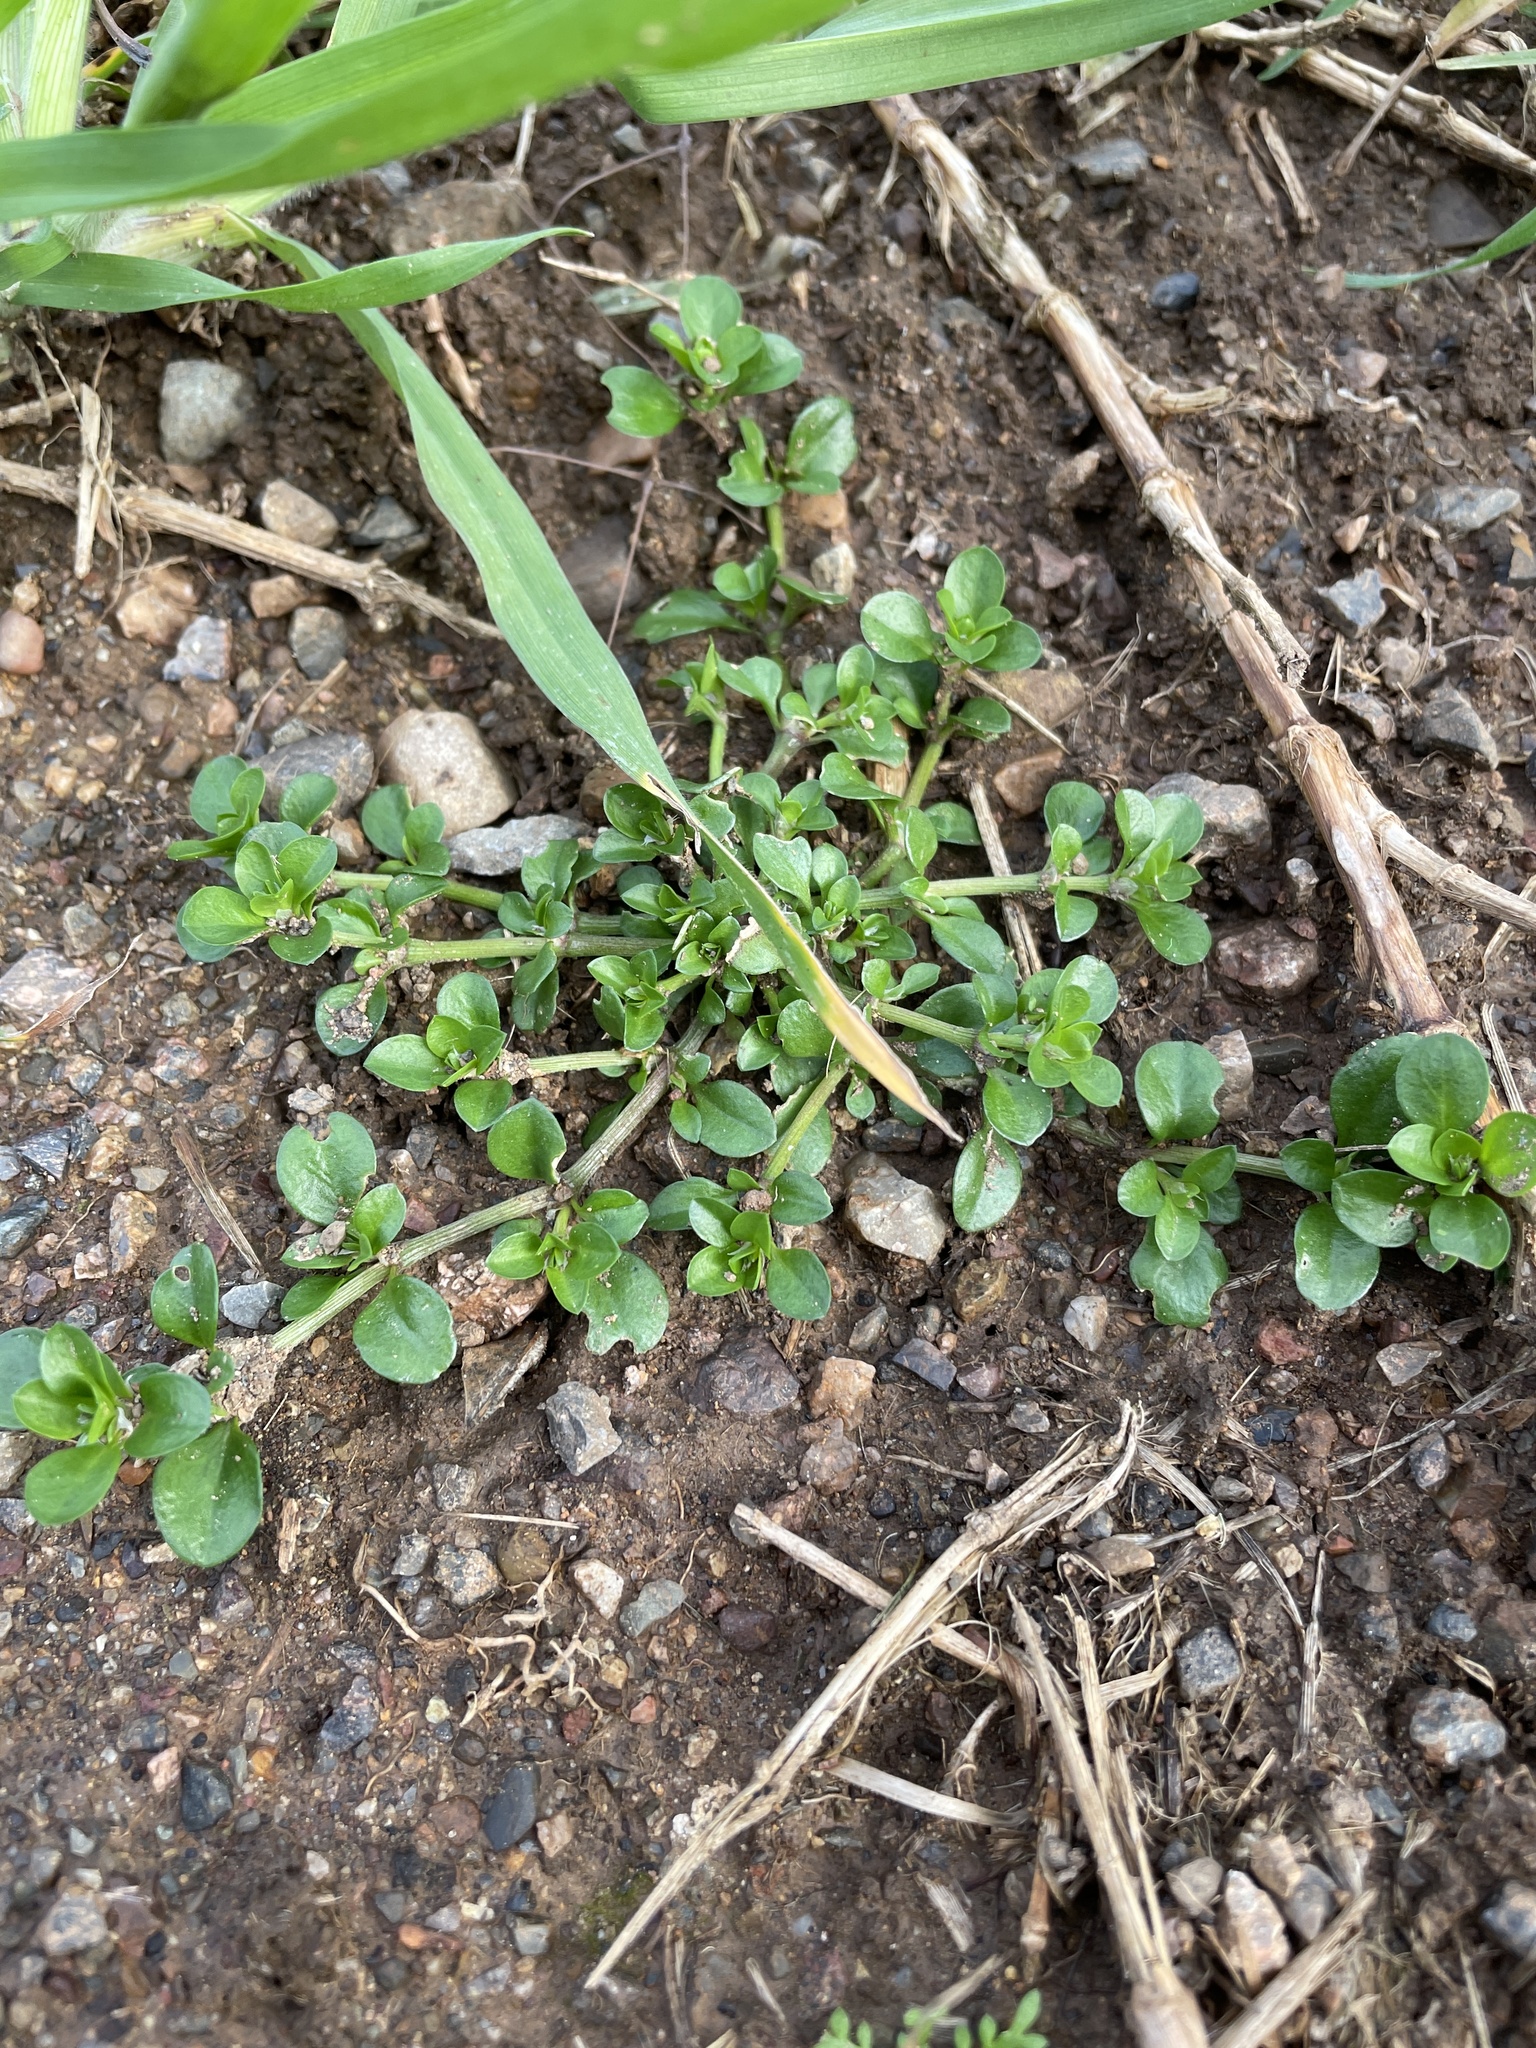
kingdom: Plantae
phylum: Tracheophyta
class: Magnoliopsida
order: Caryophyllales
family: Caryophyllaceae
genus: Polycarpon
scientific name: Polycarpon tetraphyllum
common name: Four-leaved all-seed
